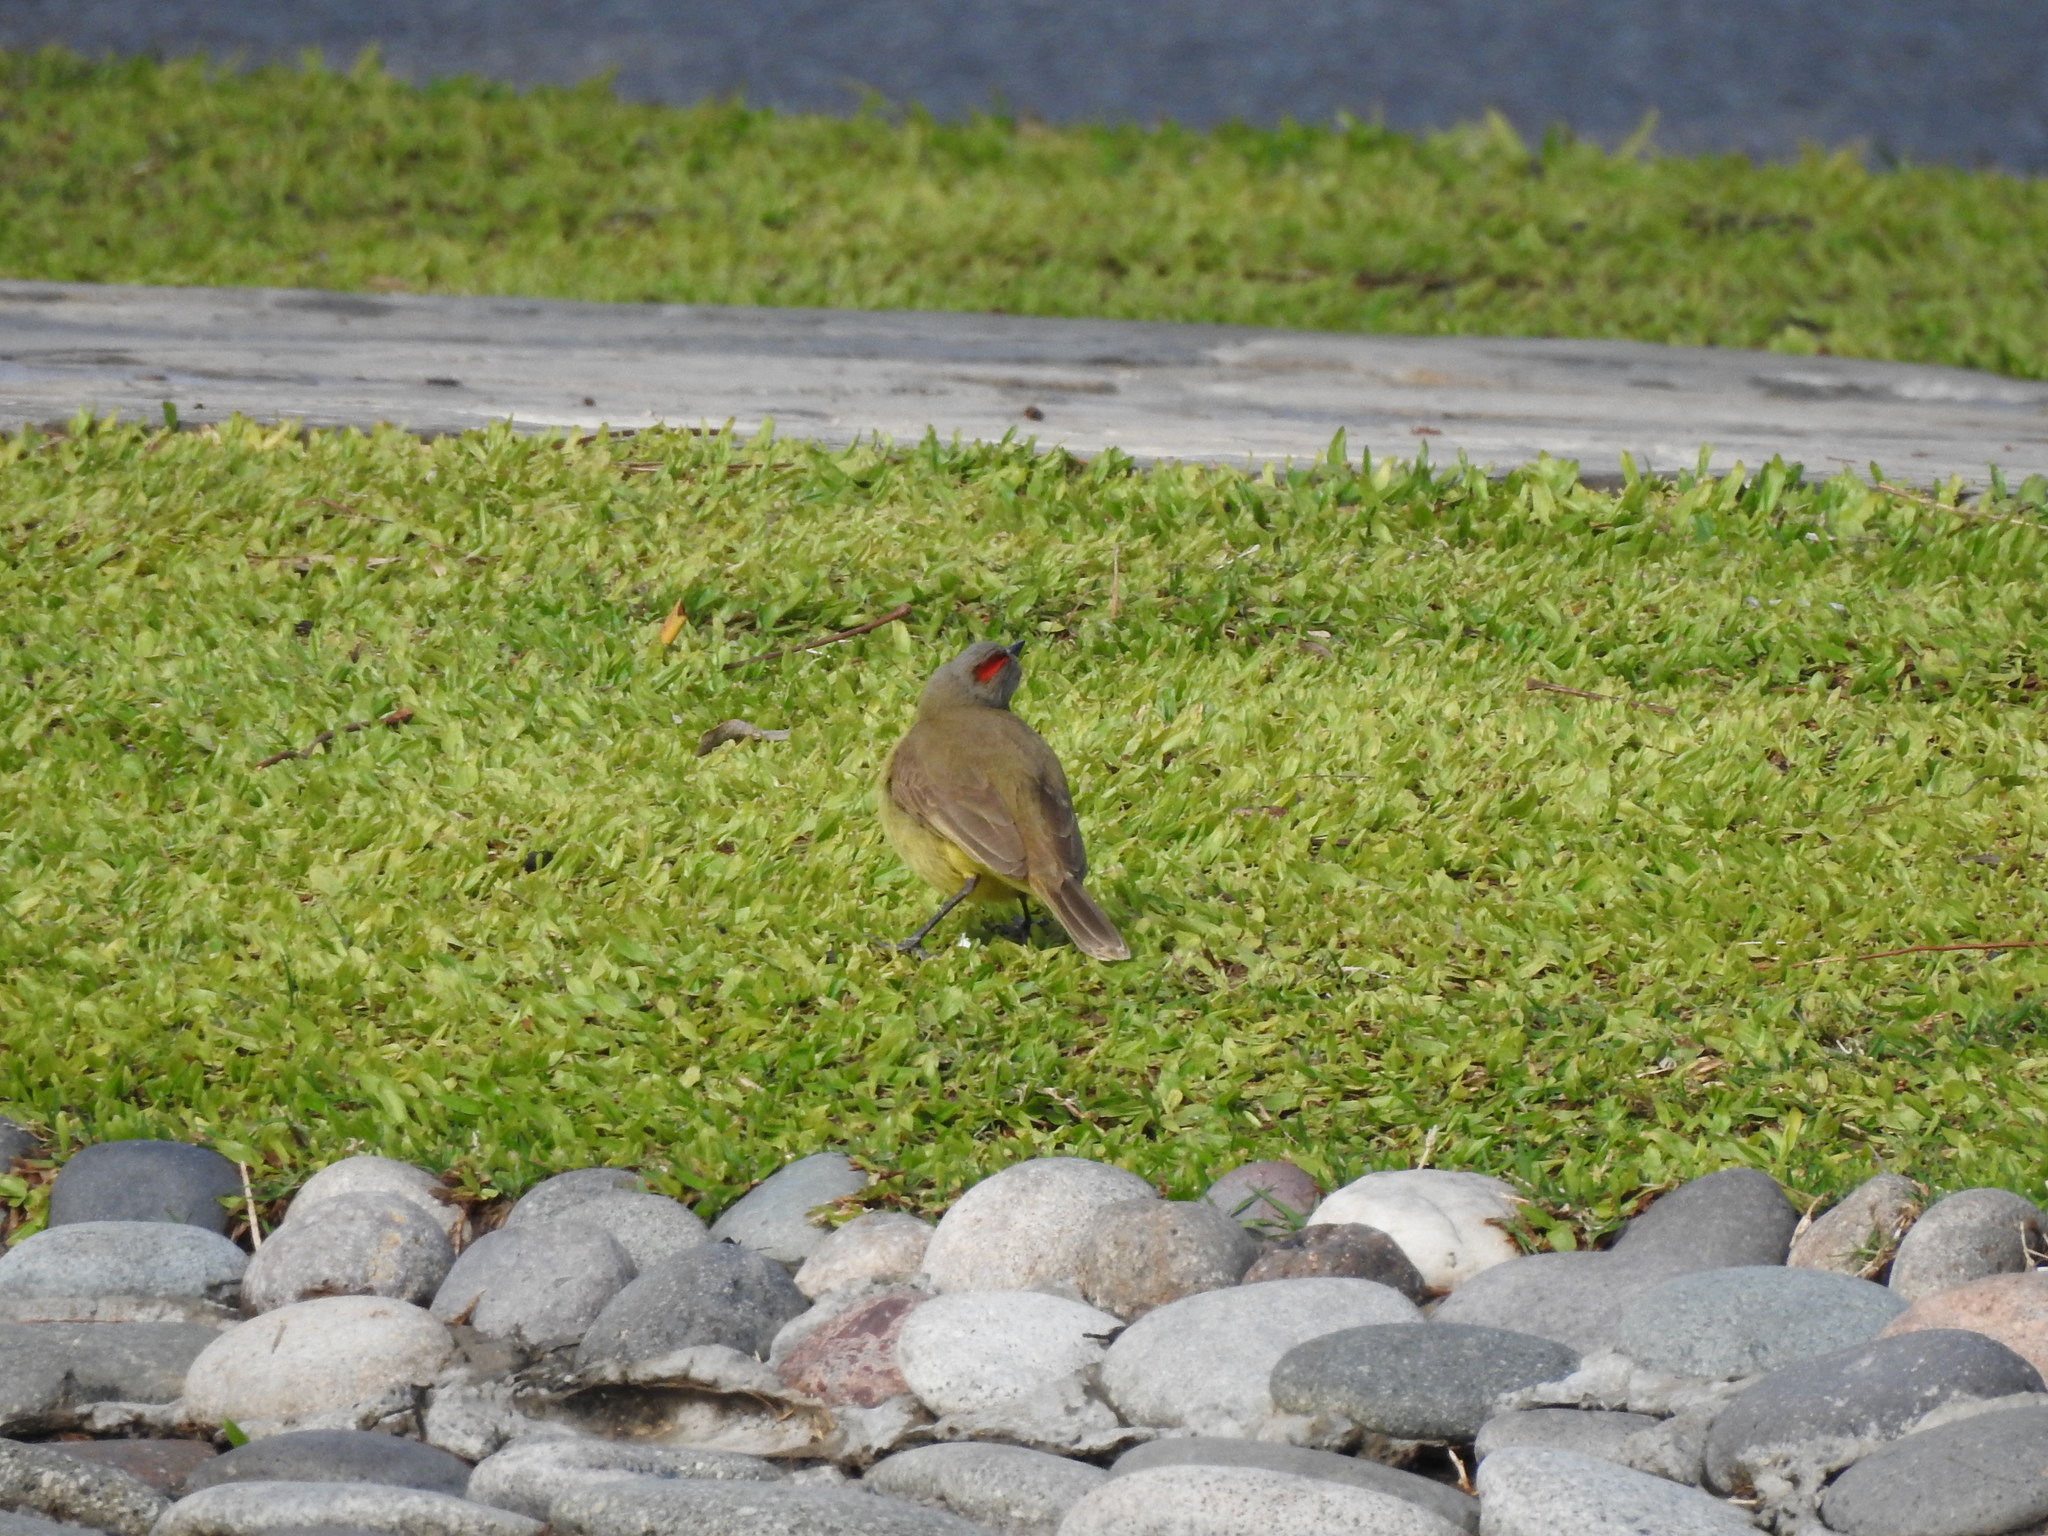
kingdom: Animalia
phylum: Chordata
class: Aves
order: Passeriformes
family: Tyrannidae
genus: Machetornis
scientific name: Machetornis rixosa
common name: Cattle tyrant
